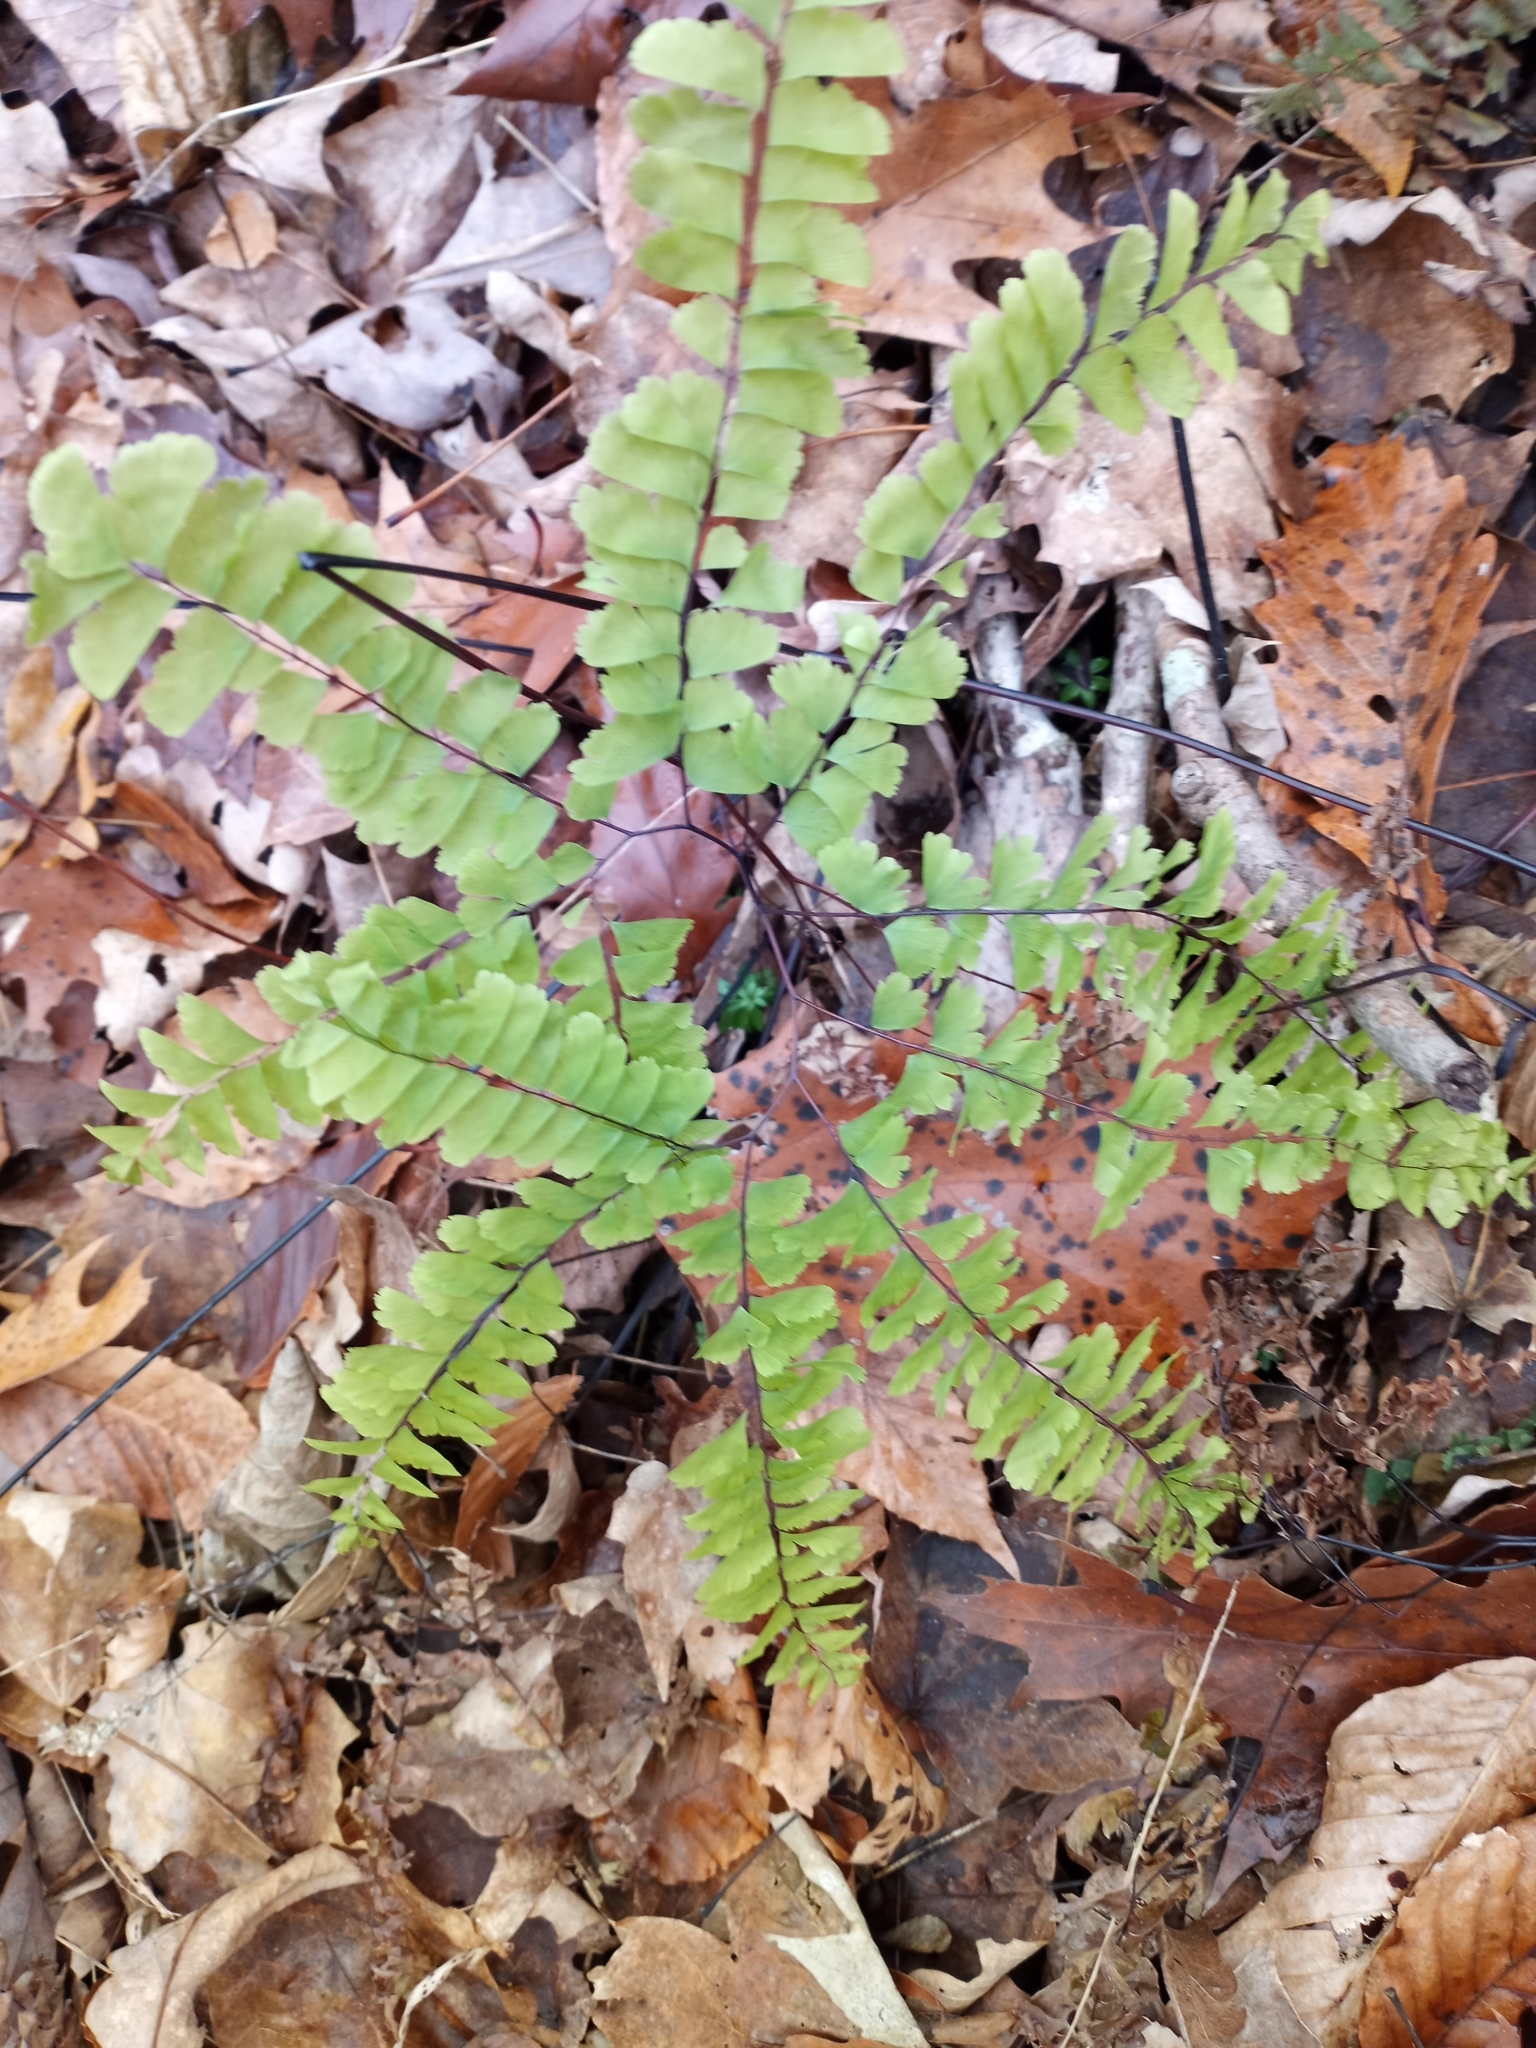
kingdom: Plantae
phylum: Tracheophyta
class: Polypodiopsida
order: Polypodiales
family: Pteridaceae
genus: Adiantum
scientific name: Adiantum pedatum
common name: Five-finger fern
